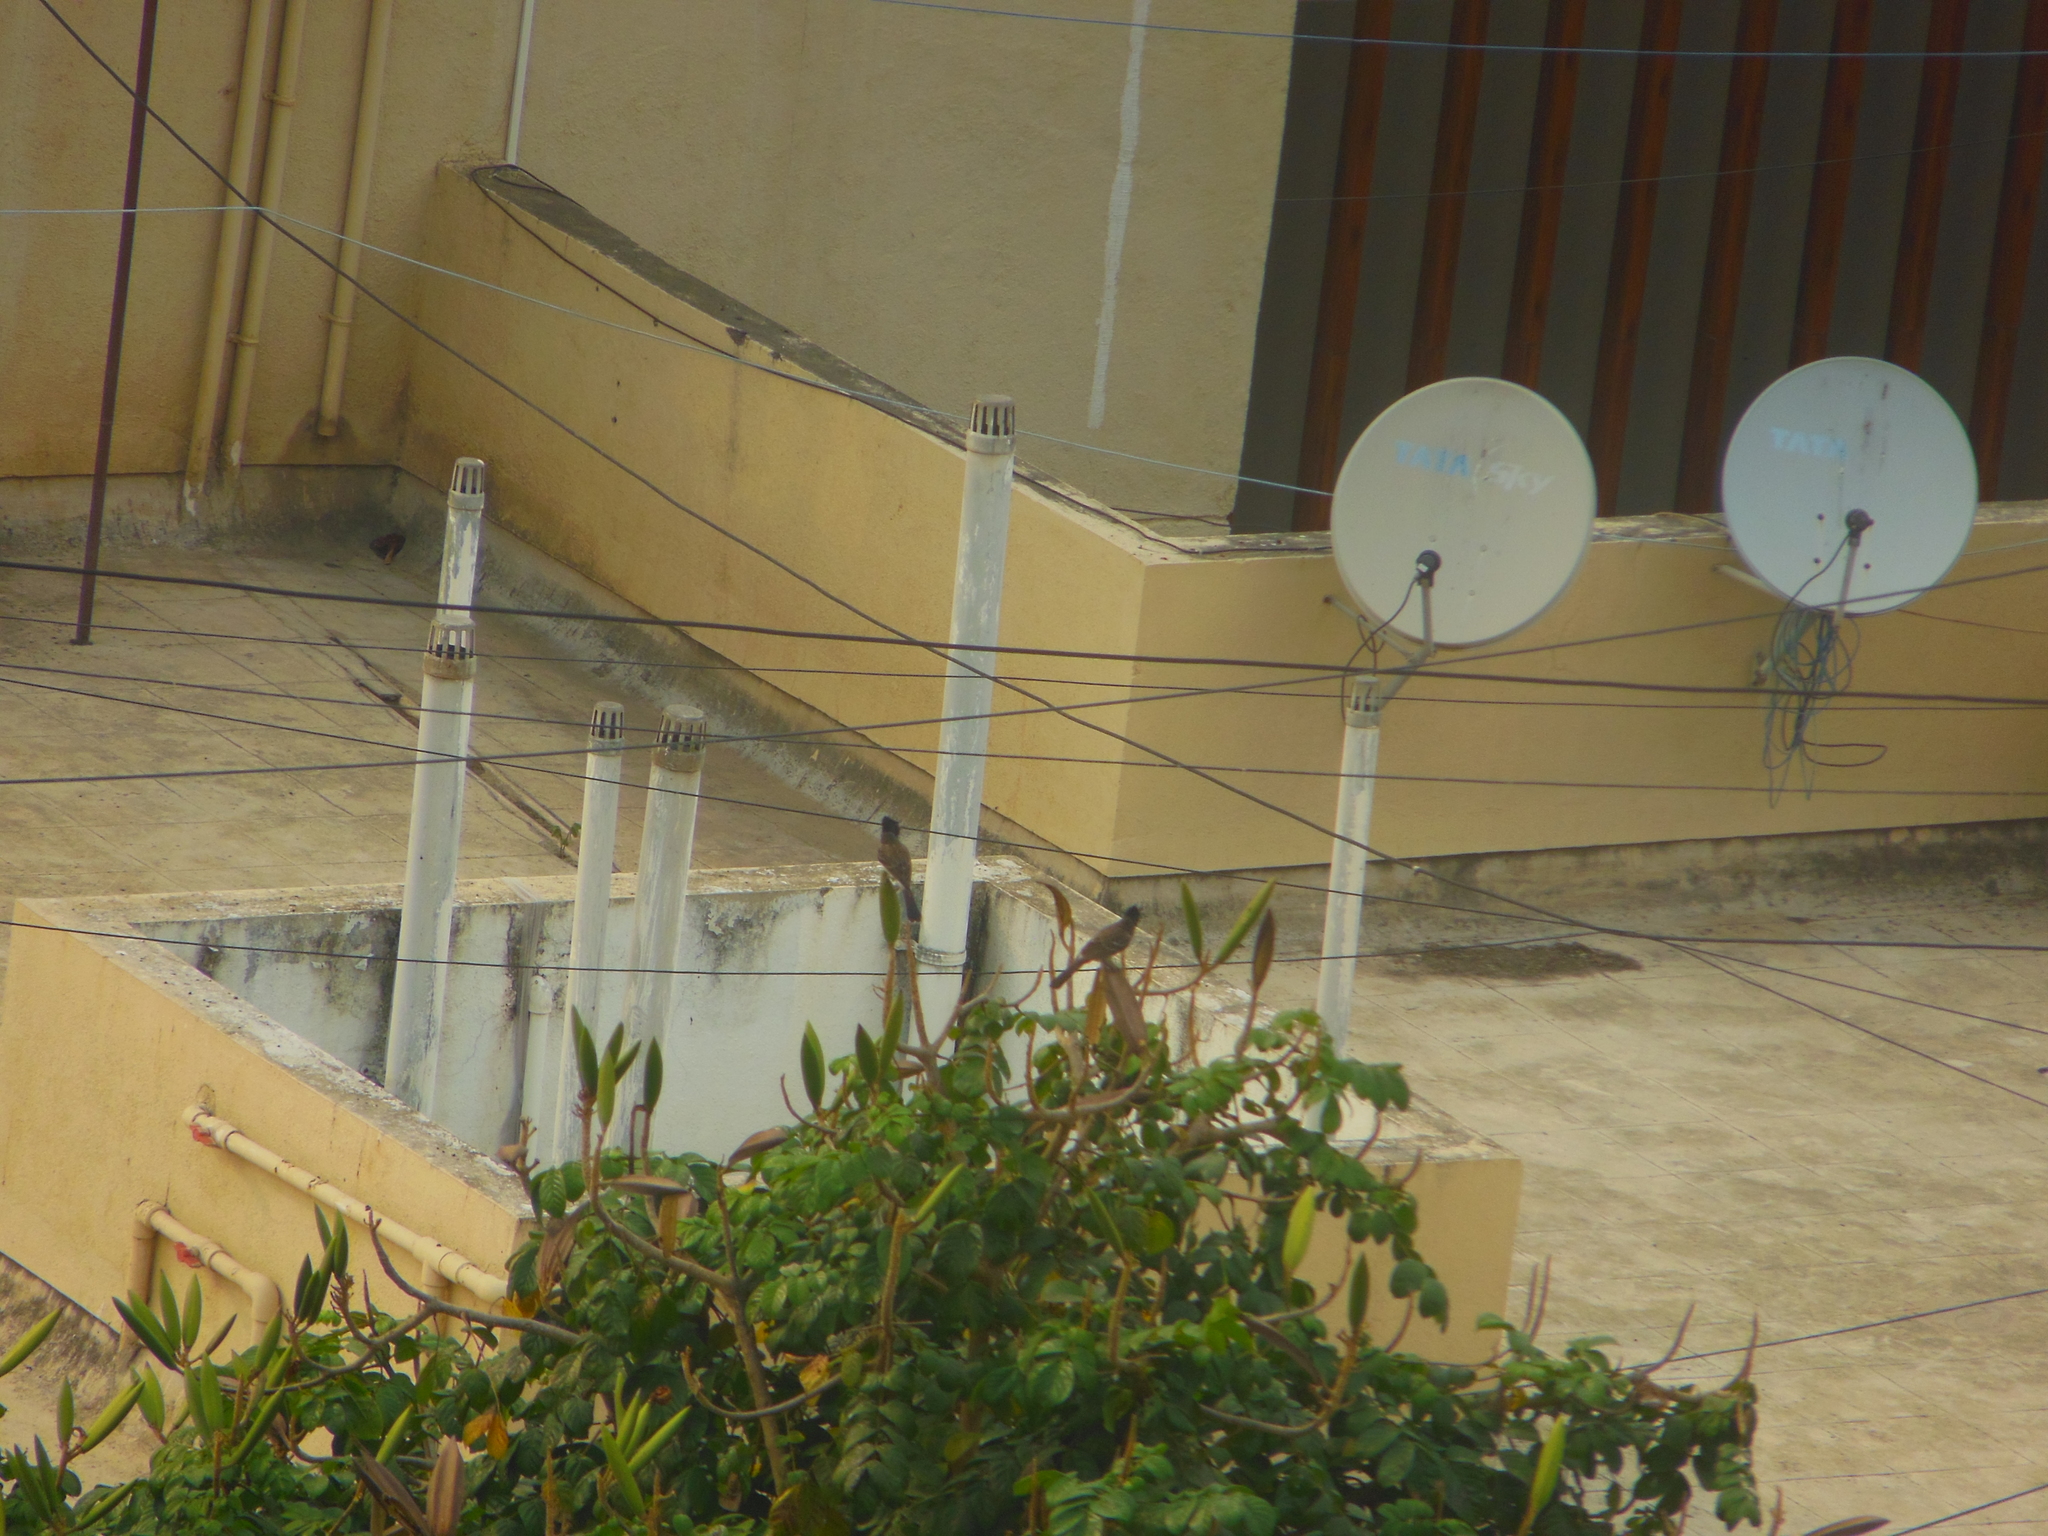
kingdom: Animalia
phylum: Chordata
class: Aves
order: Passeriformes
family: Pycnonotidae
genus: Pycnonotus
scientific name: Pycnonotus cafer
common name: Red-vented bulbul
